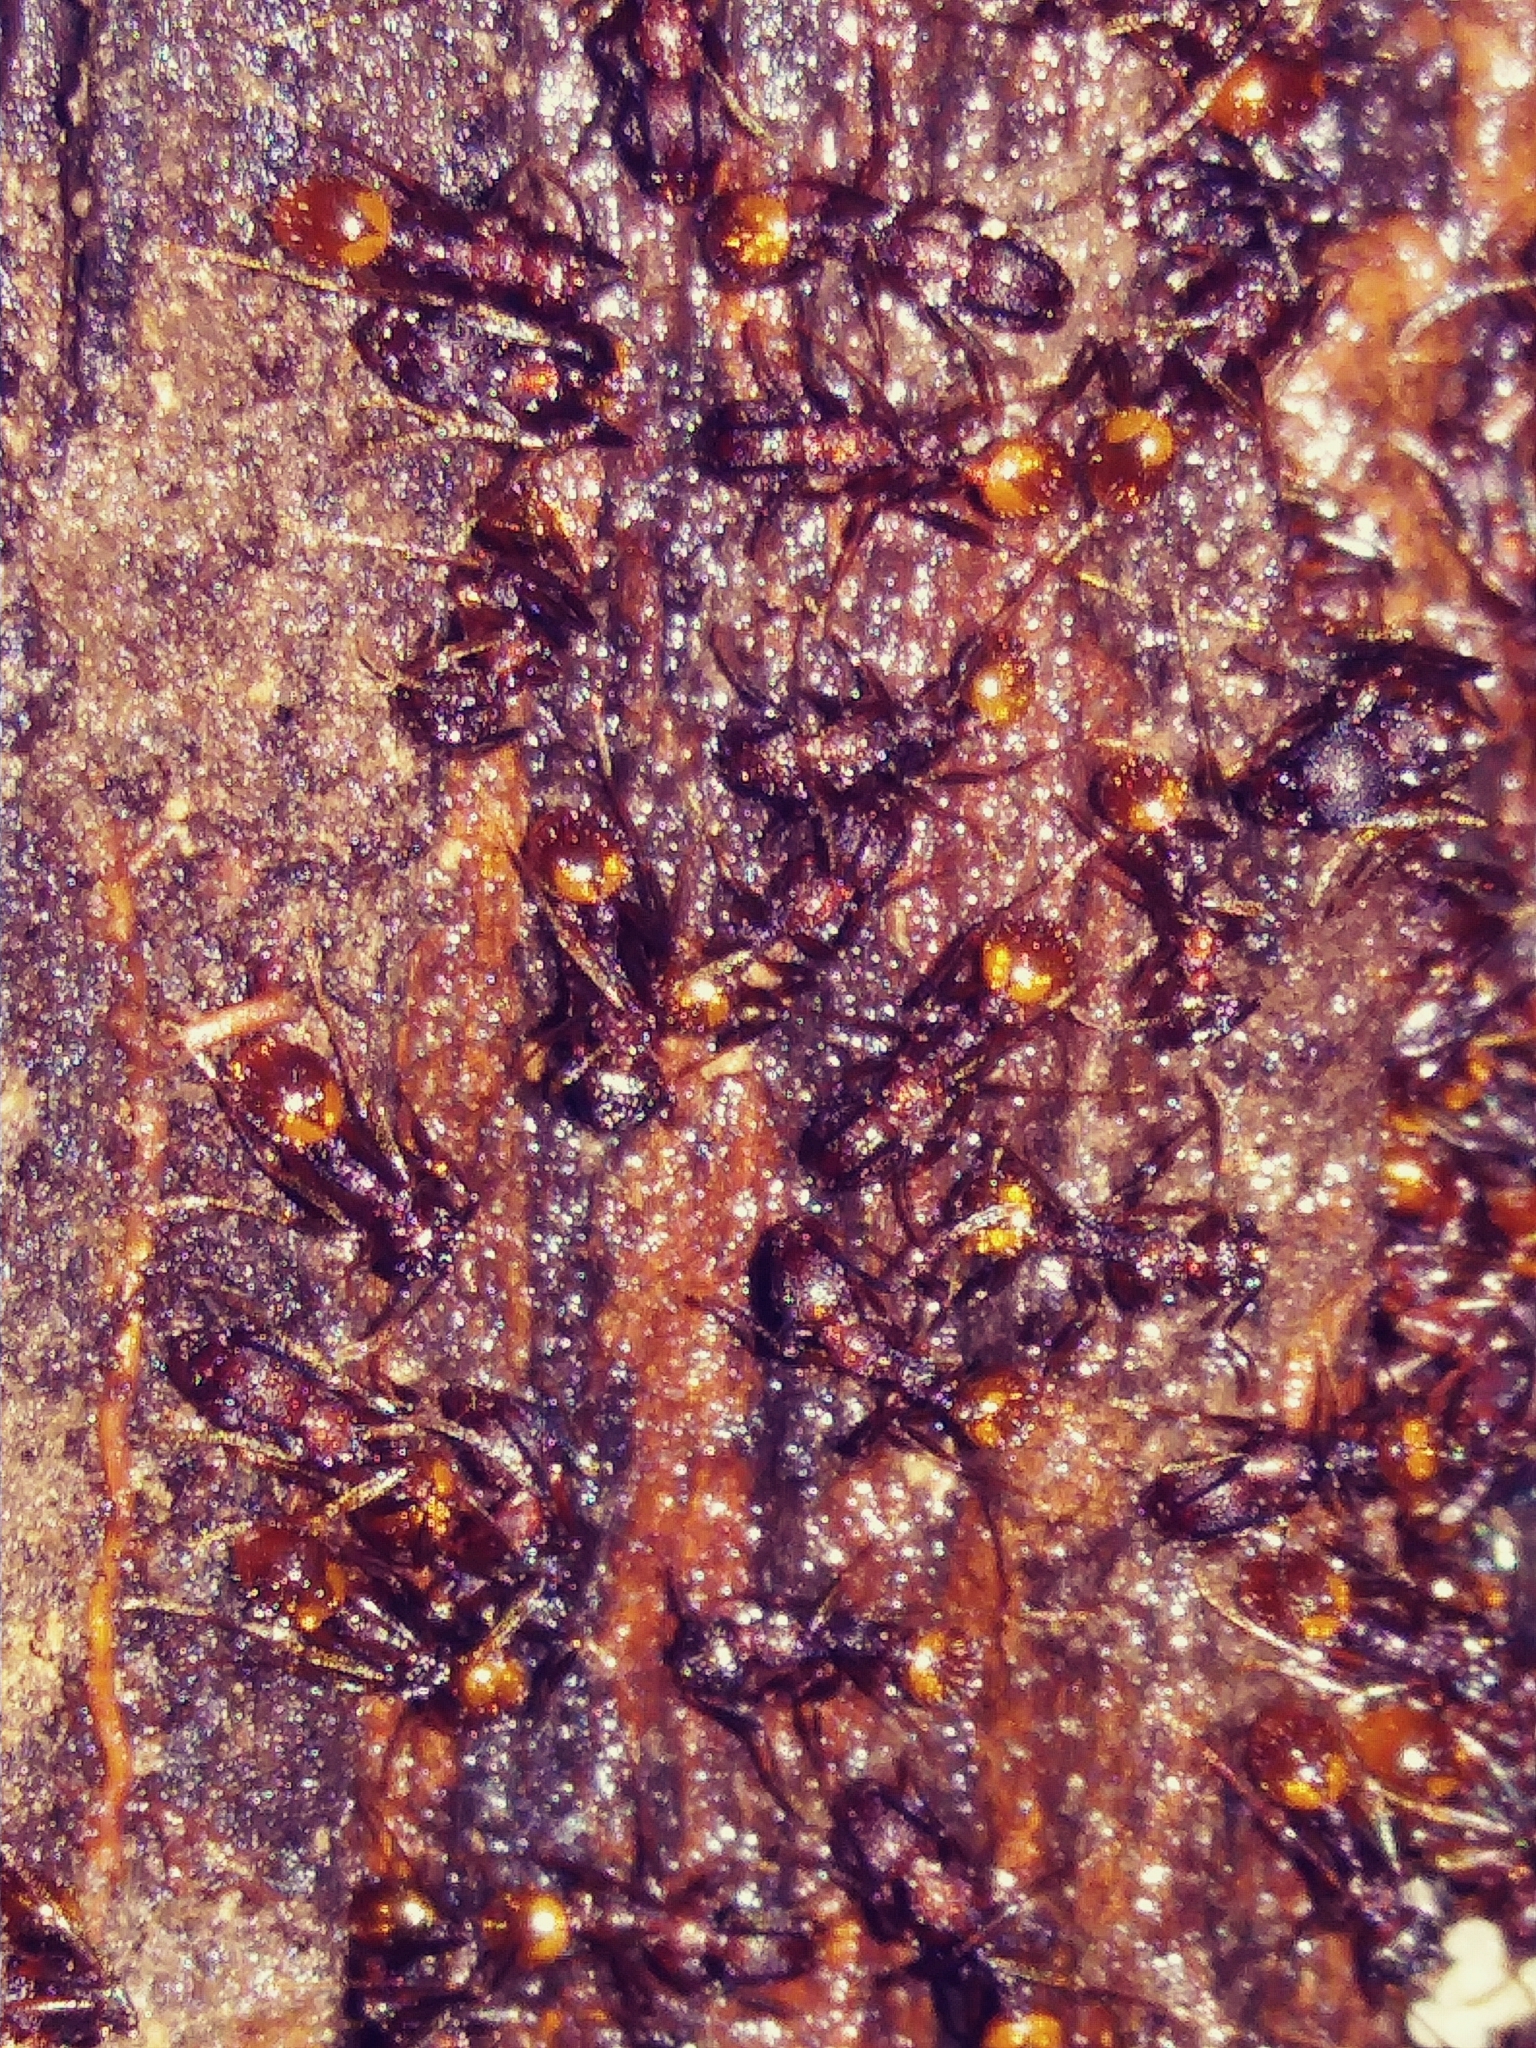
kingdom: Animalia
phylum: Arthropoda
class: Insecta
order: Hymenoptera
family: Formicidae
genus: Aphaenogaster
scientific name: Aphaenogaster fulva
